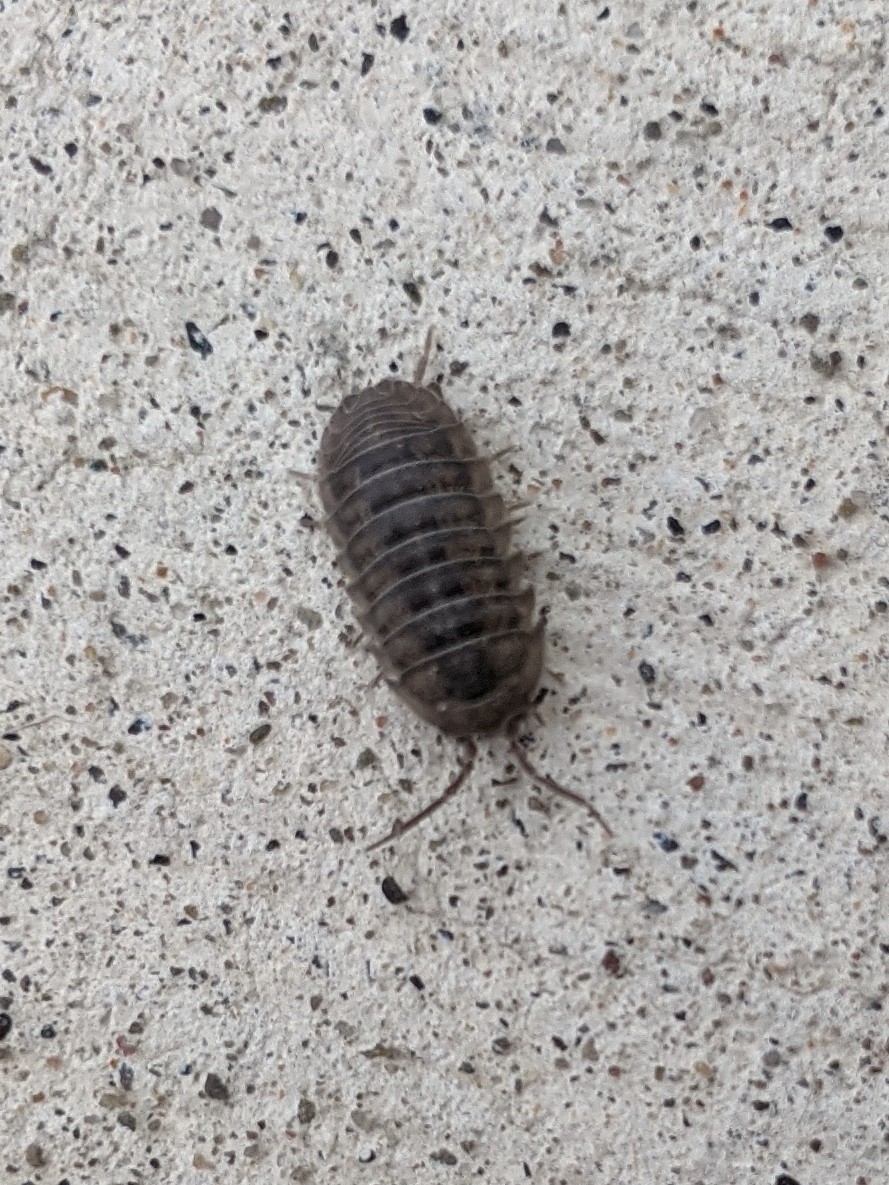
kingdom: Animalia
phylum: Arthropoda
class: Malacostraca
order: Isopoda
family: Armadillidiidae
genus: Armadillidium
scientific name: Armadillidium nasatum
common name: Isopod
